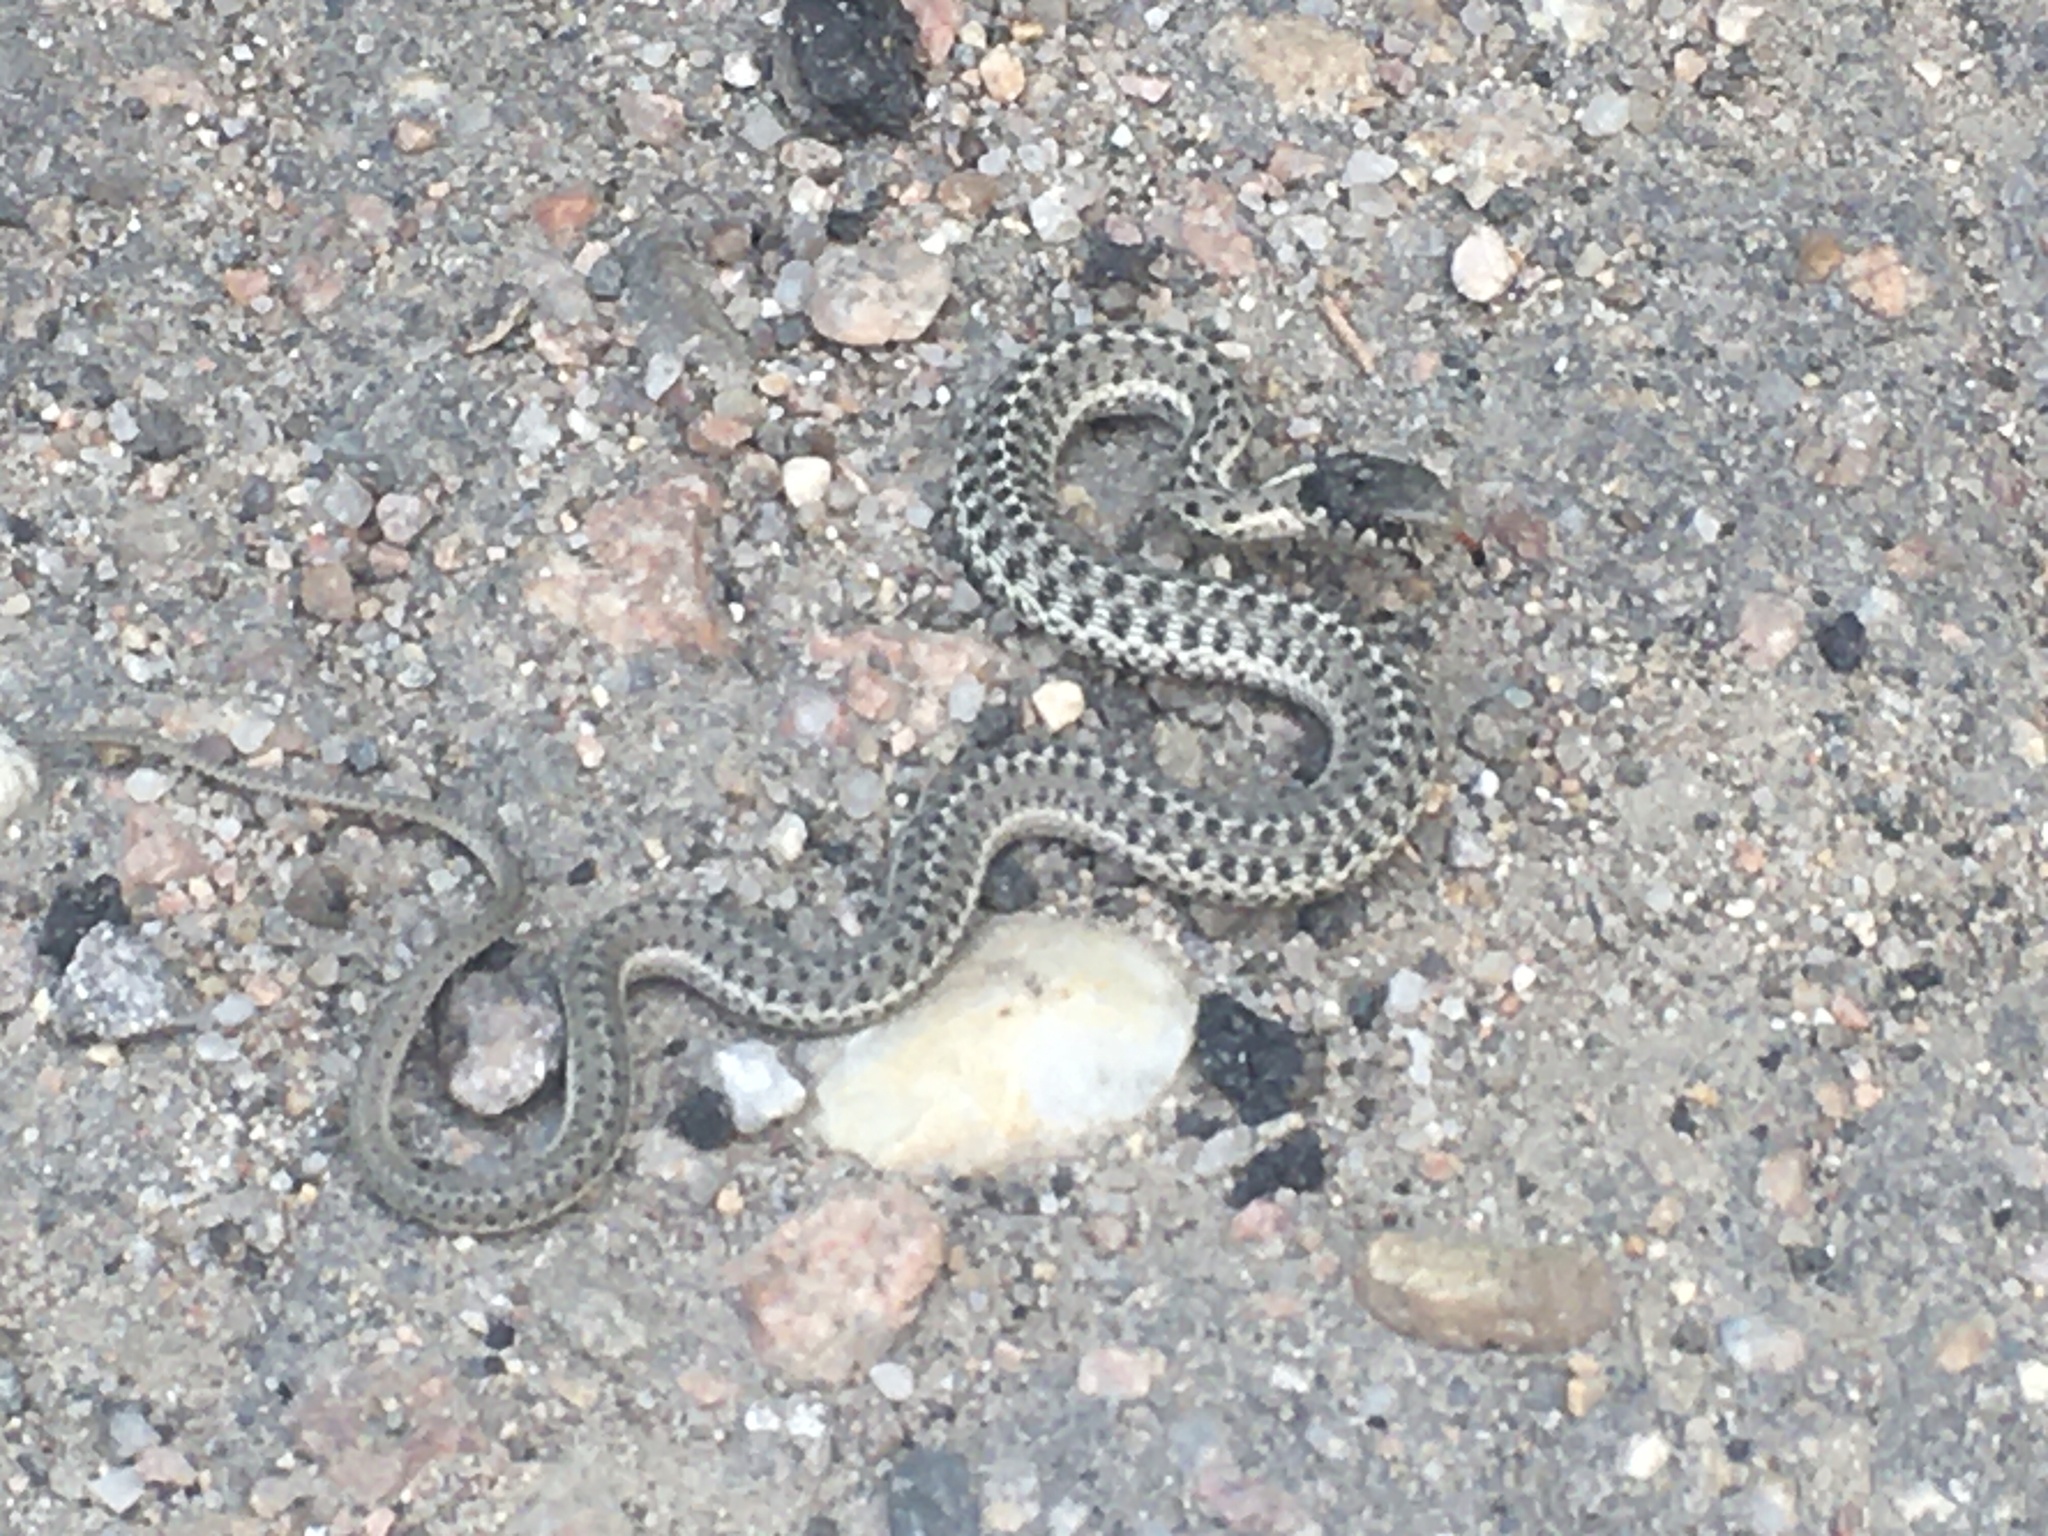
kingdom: Animalia
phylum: Chordata
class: Squamata
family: Colubridae
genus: Thamnophis
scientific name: Thamnophis elegans
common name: Western terrestrial garter snake
